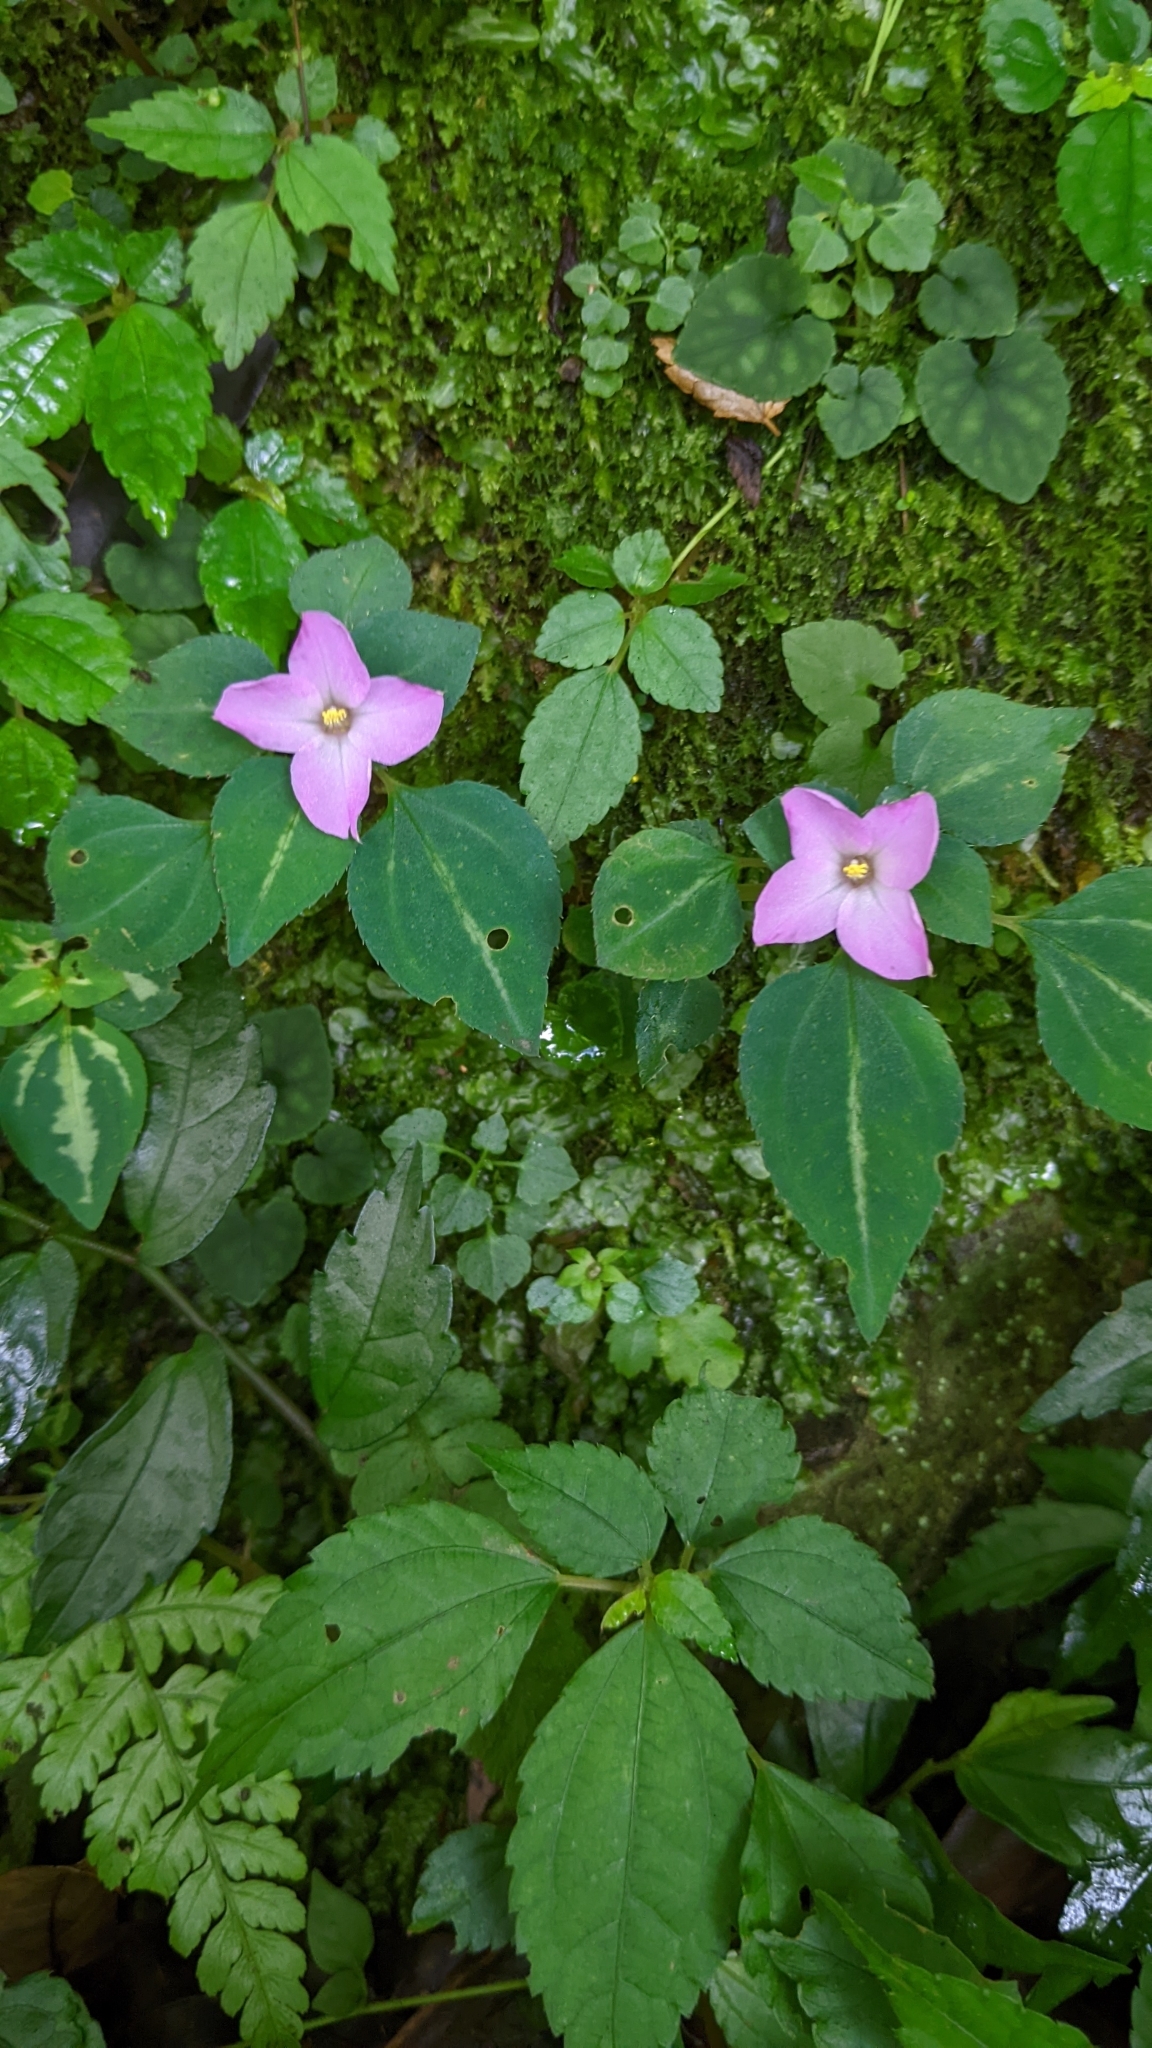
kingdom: Plantae
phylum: Tracheophyta
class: Magnoliopsida
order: Myrtales
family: Melastomataceae
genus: Sarcopyramis
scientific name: Sarcopyramis bodinieri
